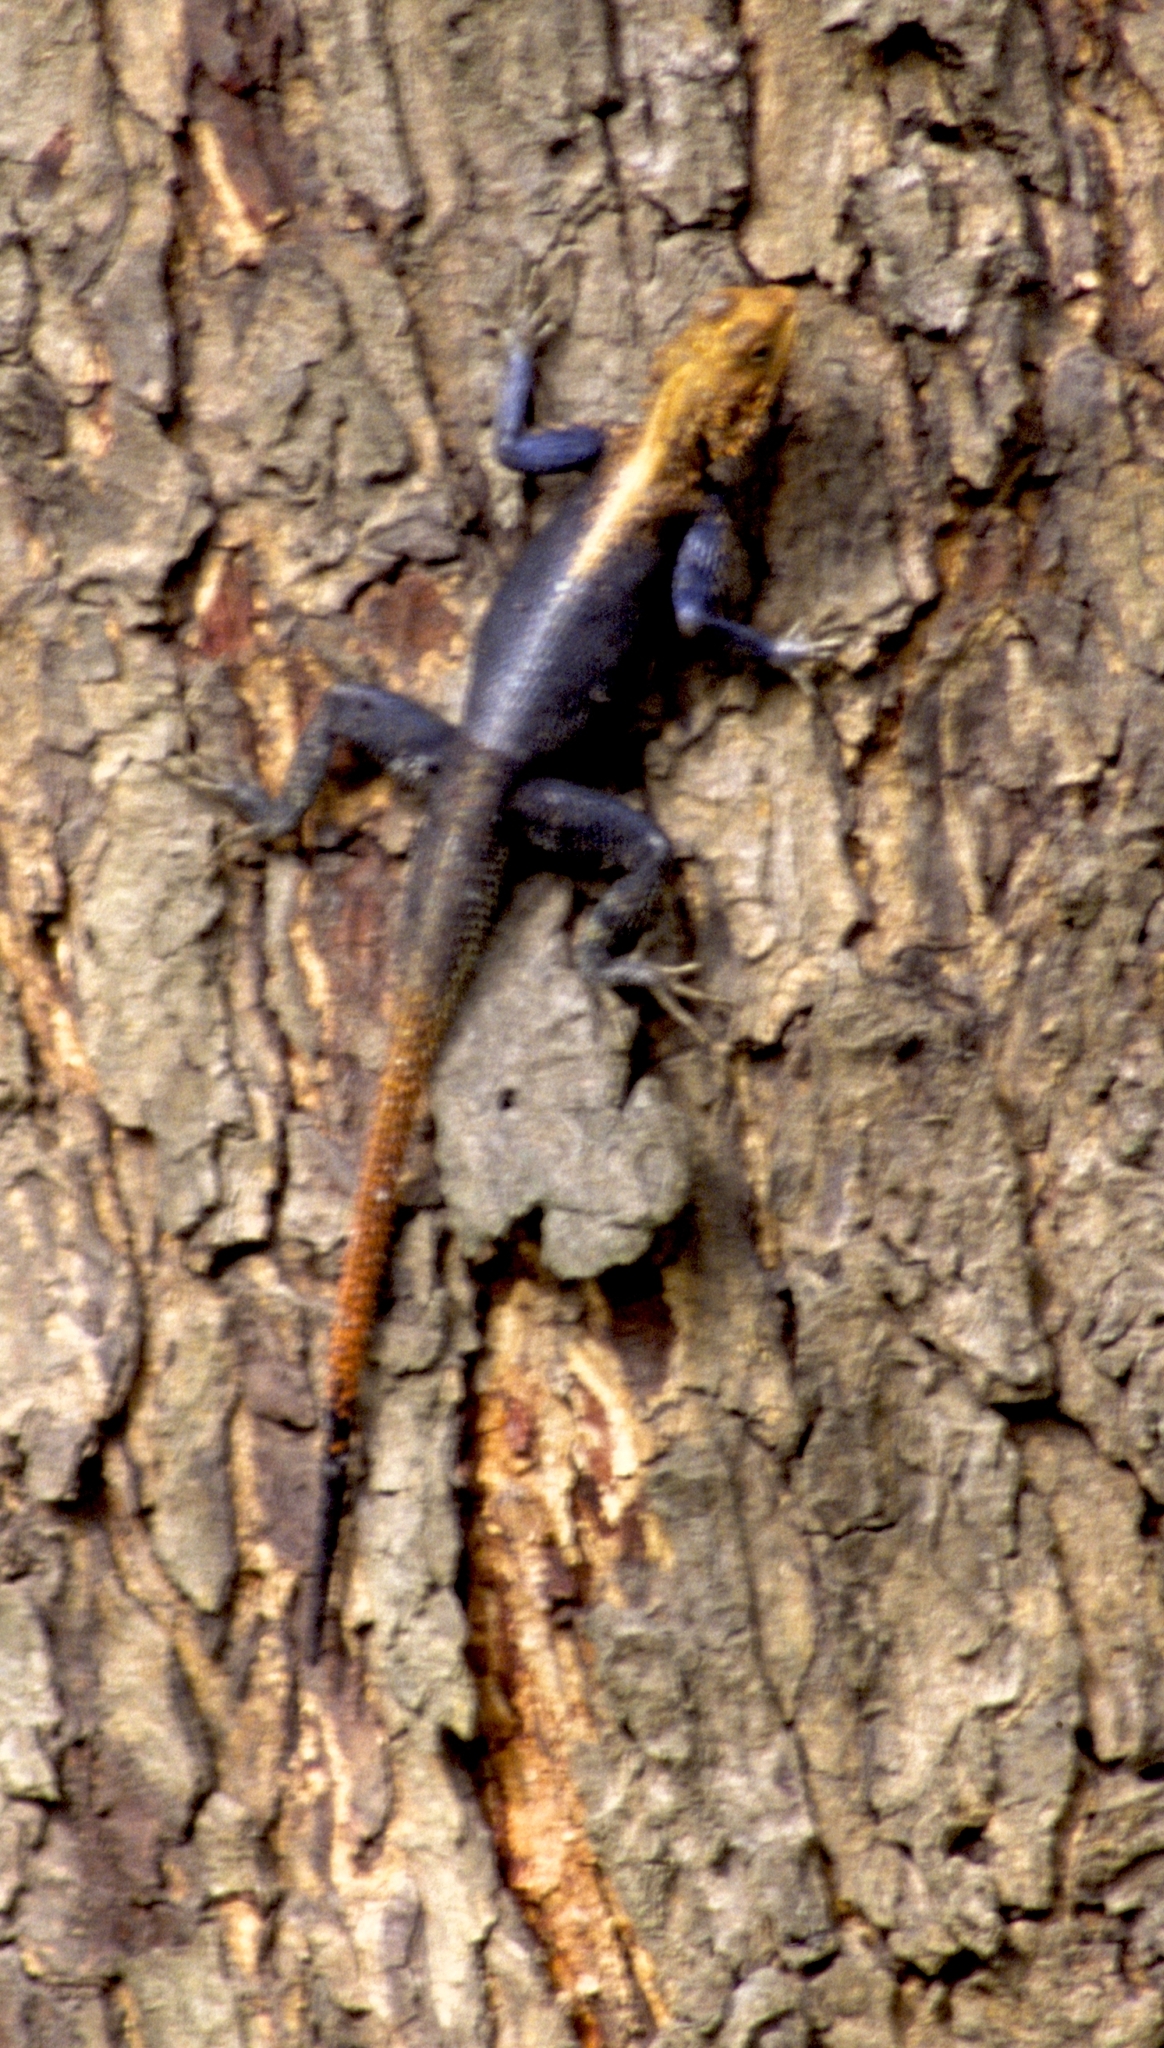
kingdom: Animalia
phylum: Chordata
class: Squamata
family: Agamidae
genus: Agama
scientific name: Agama finchi
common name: Finch’s agama
